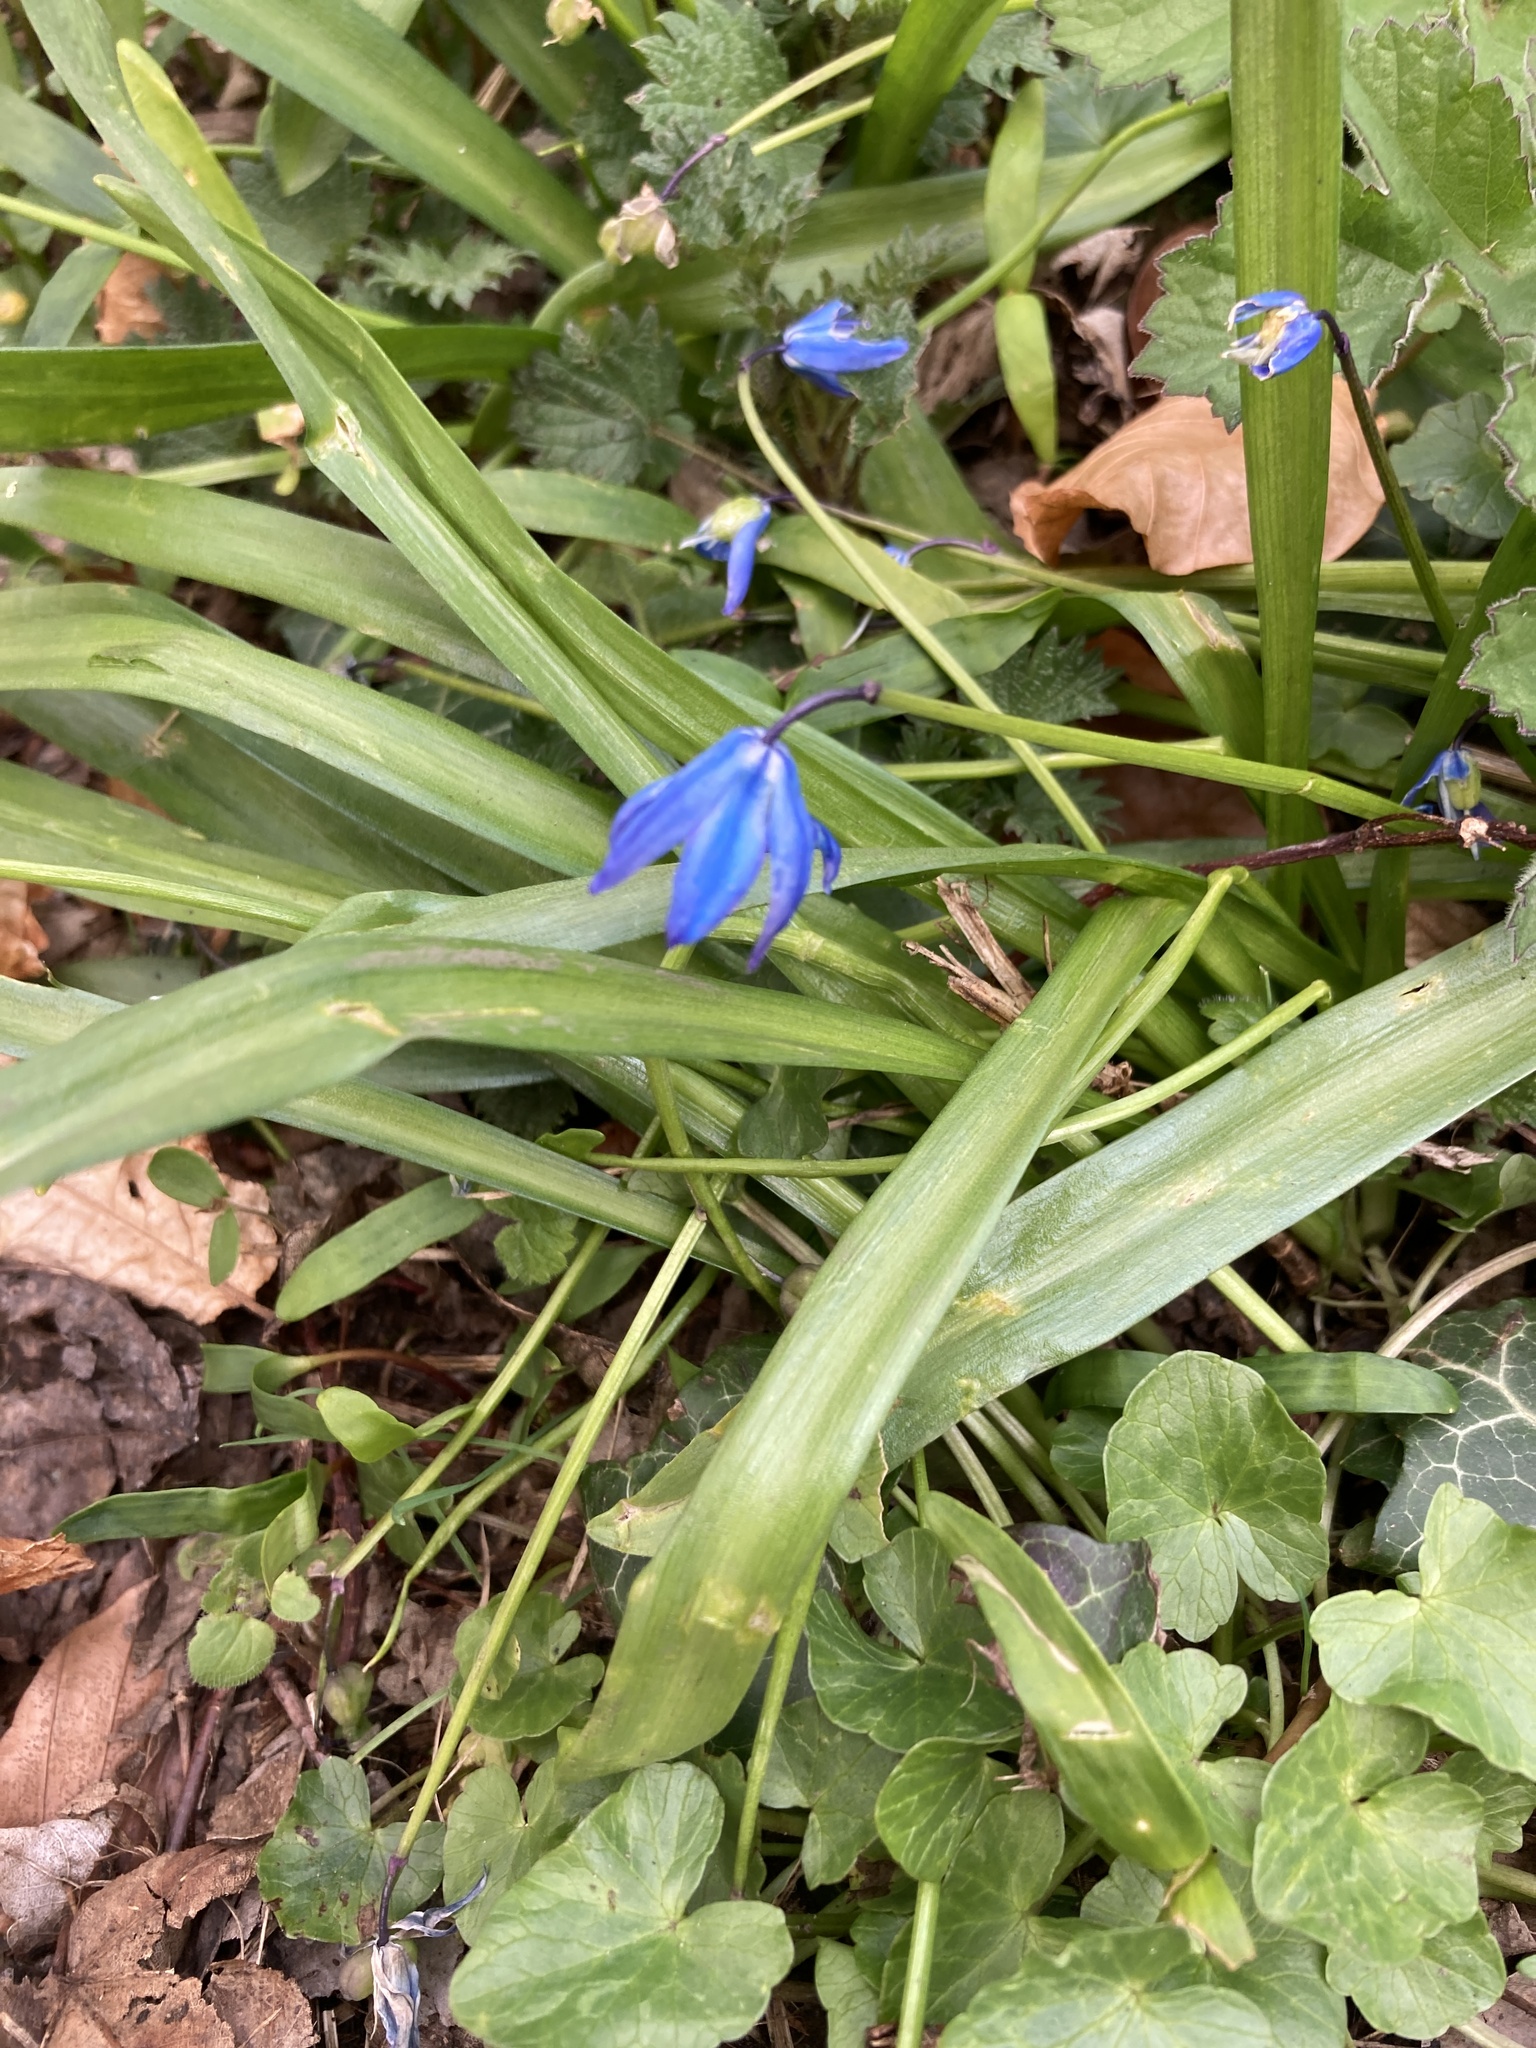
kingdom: Plantae
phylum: Tracheophyta
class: Liliopsida
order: Asparagales
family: Asparagaceae
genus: Scilla
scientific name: Scilla siberica
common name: Siberian squill
